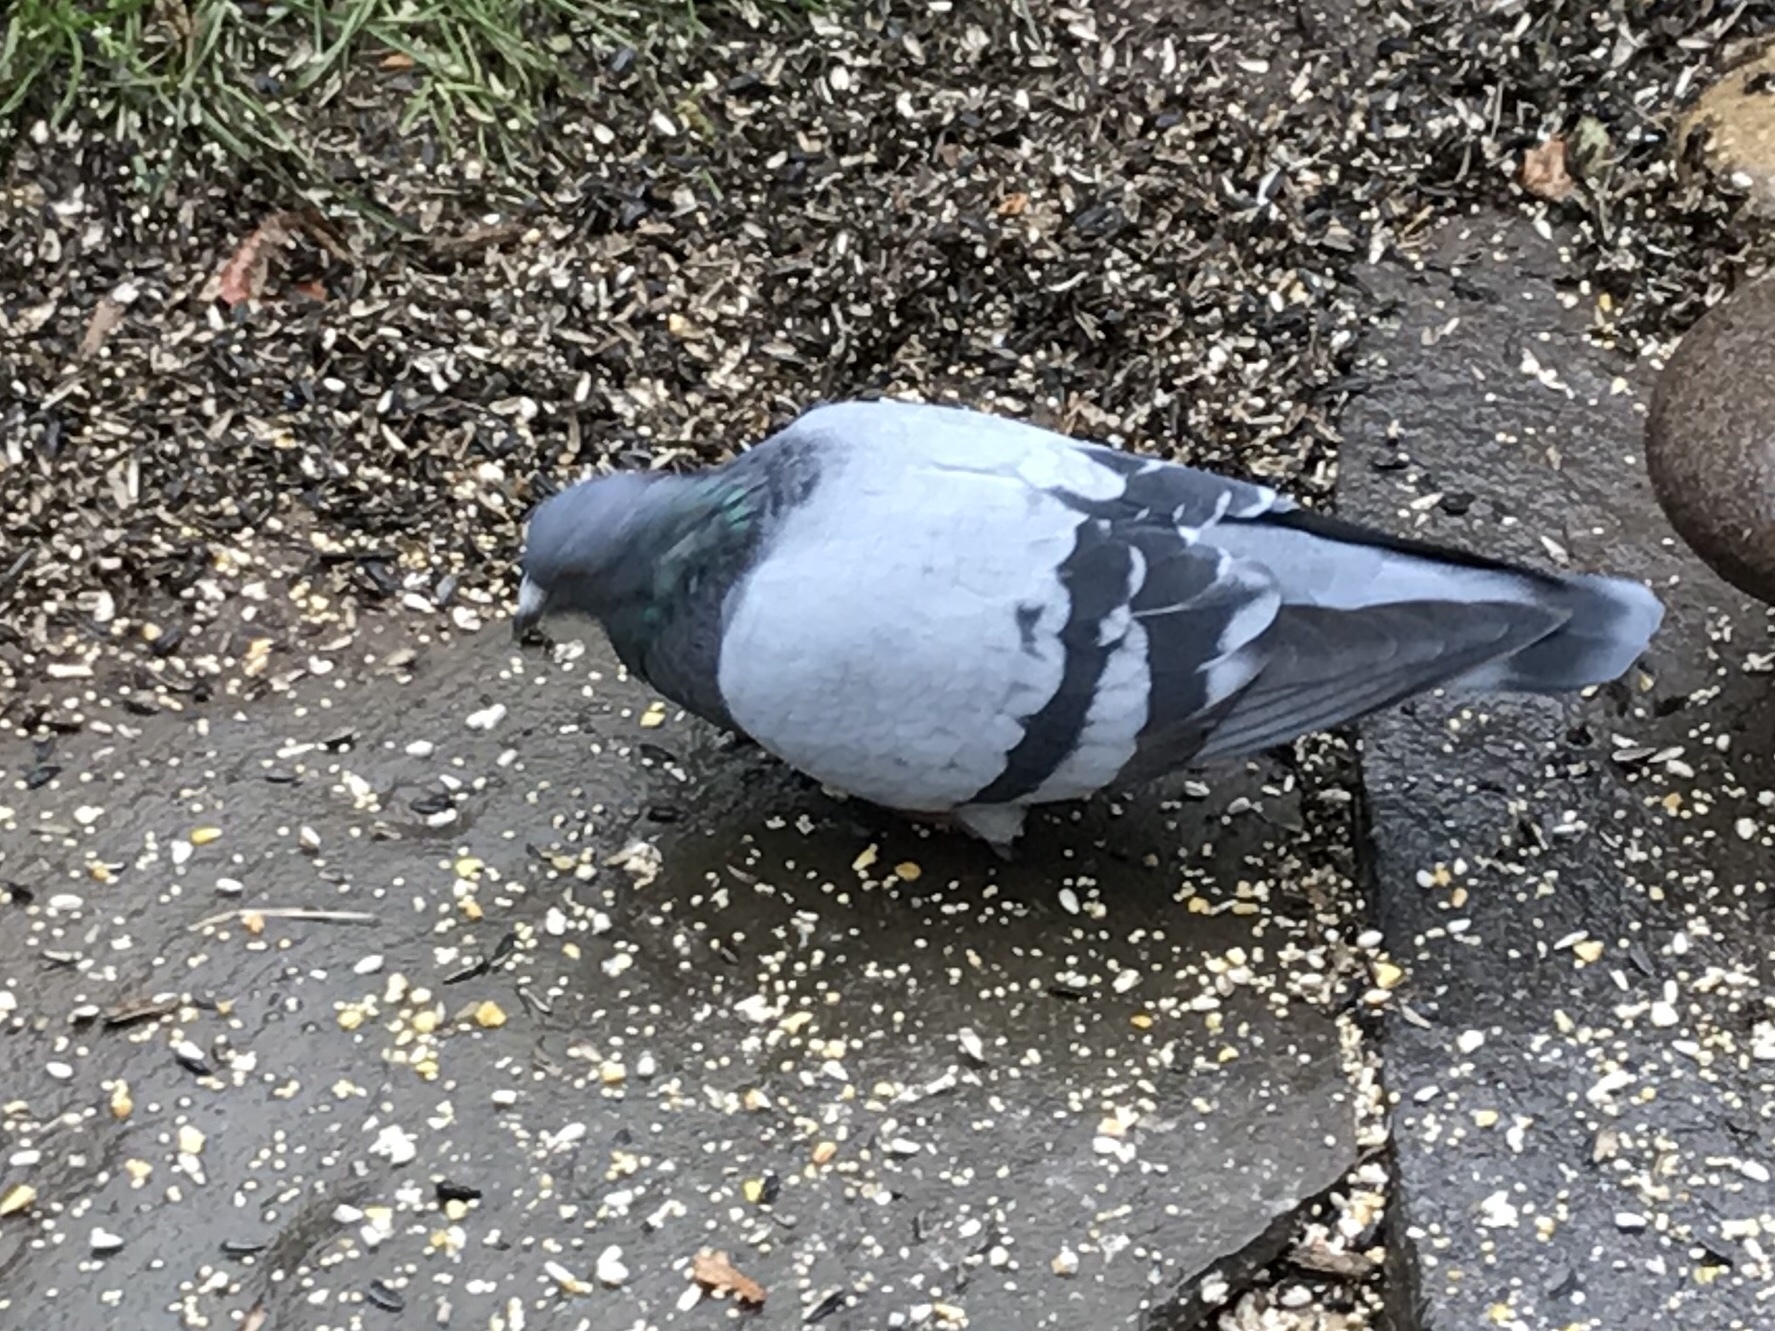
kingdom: Animalia
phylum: Chordata
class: Aves
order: Columbiformes
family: Columbidae
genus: Columba
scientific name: Columba livia
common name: Rock pigeon
